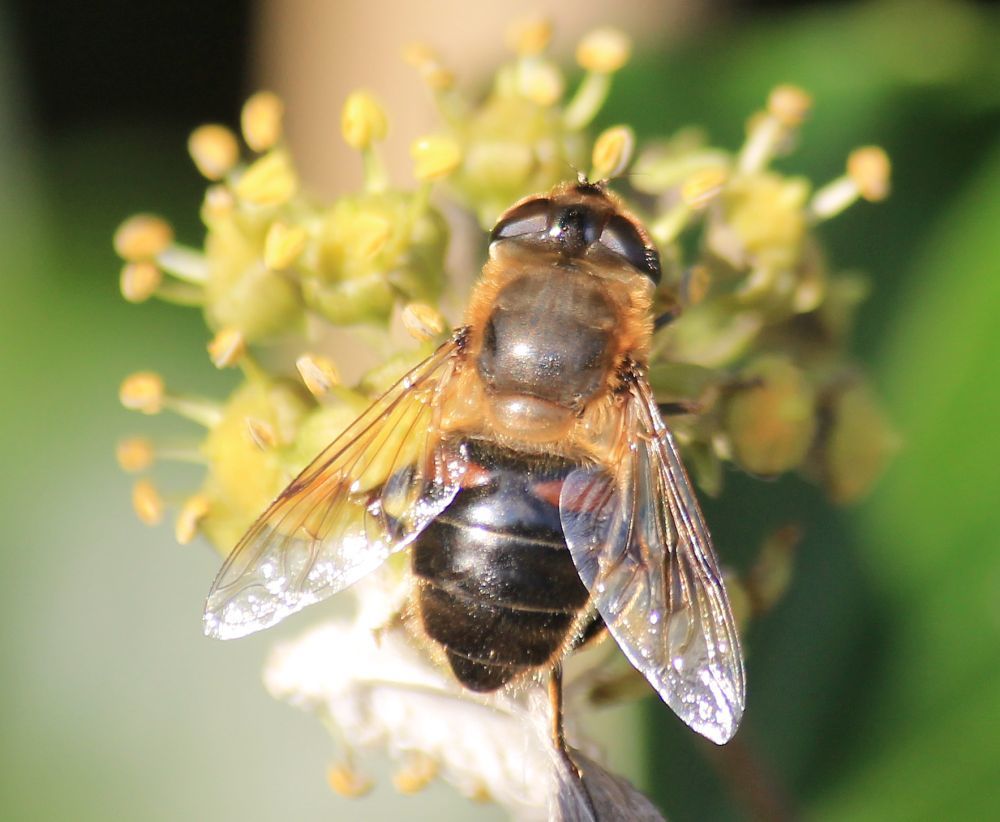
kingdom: Animalia
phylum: Arthropoda
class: Insecta
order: Diptera
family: Syrphidae
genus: Eristalis
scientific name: Eristalis tenax
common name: Drone fly
